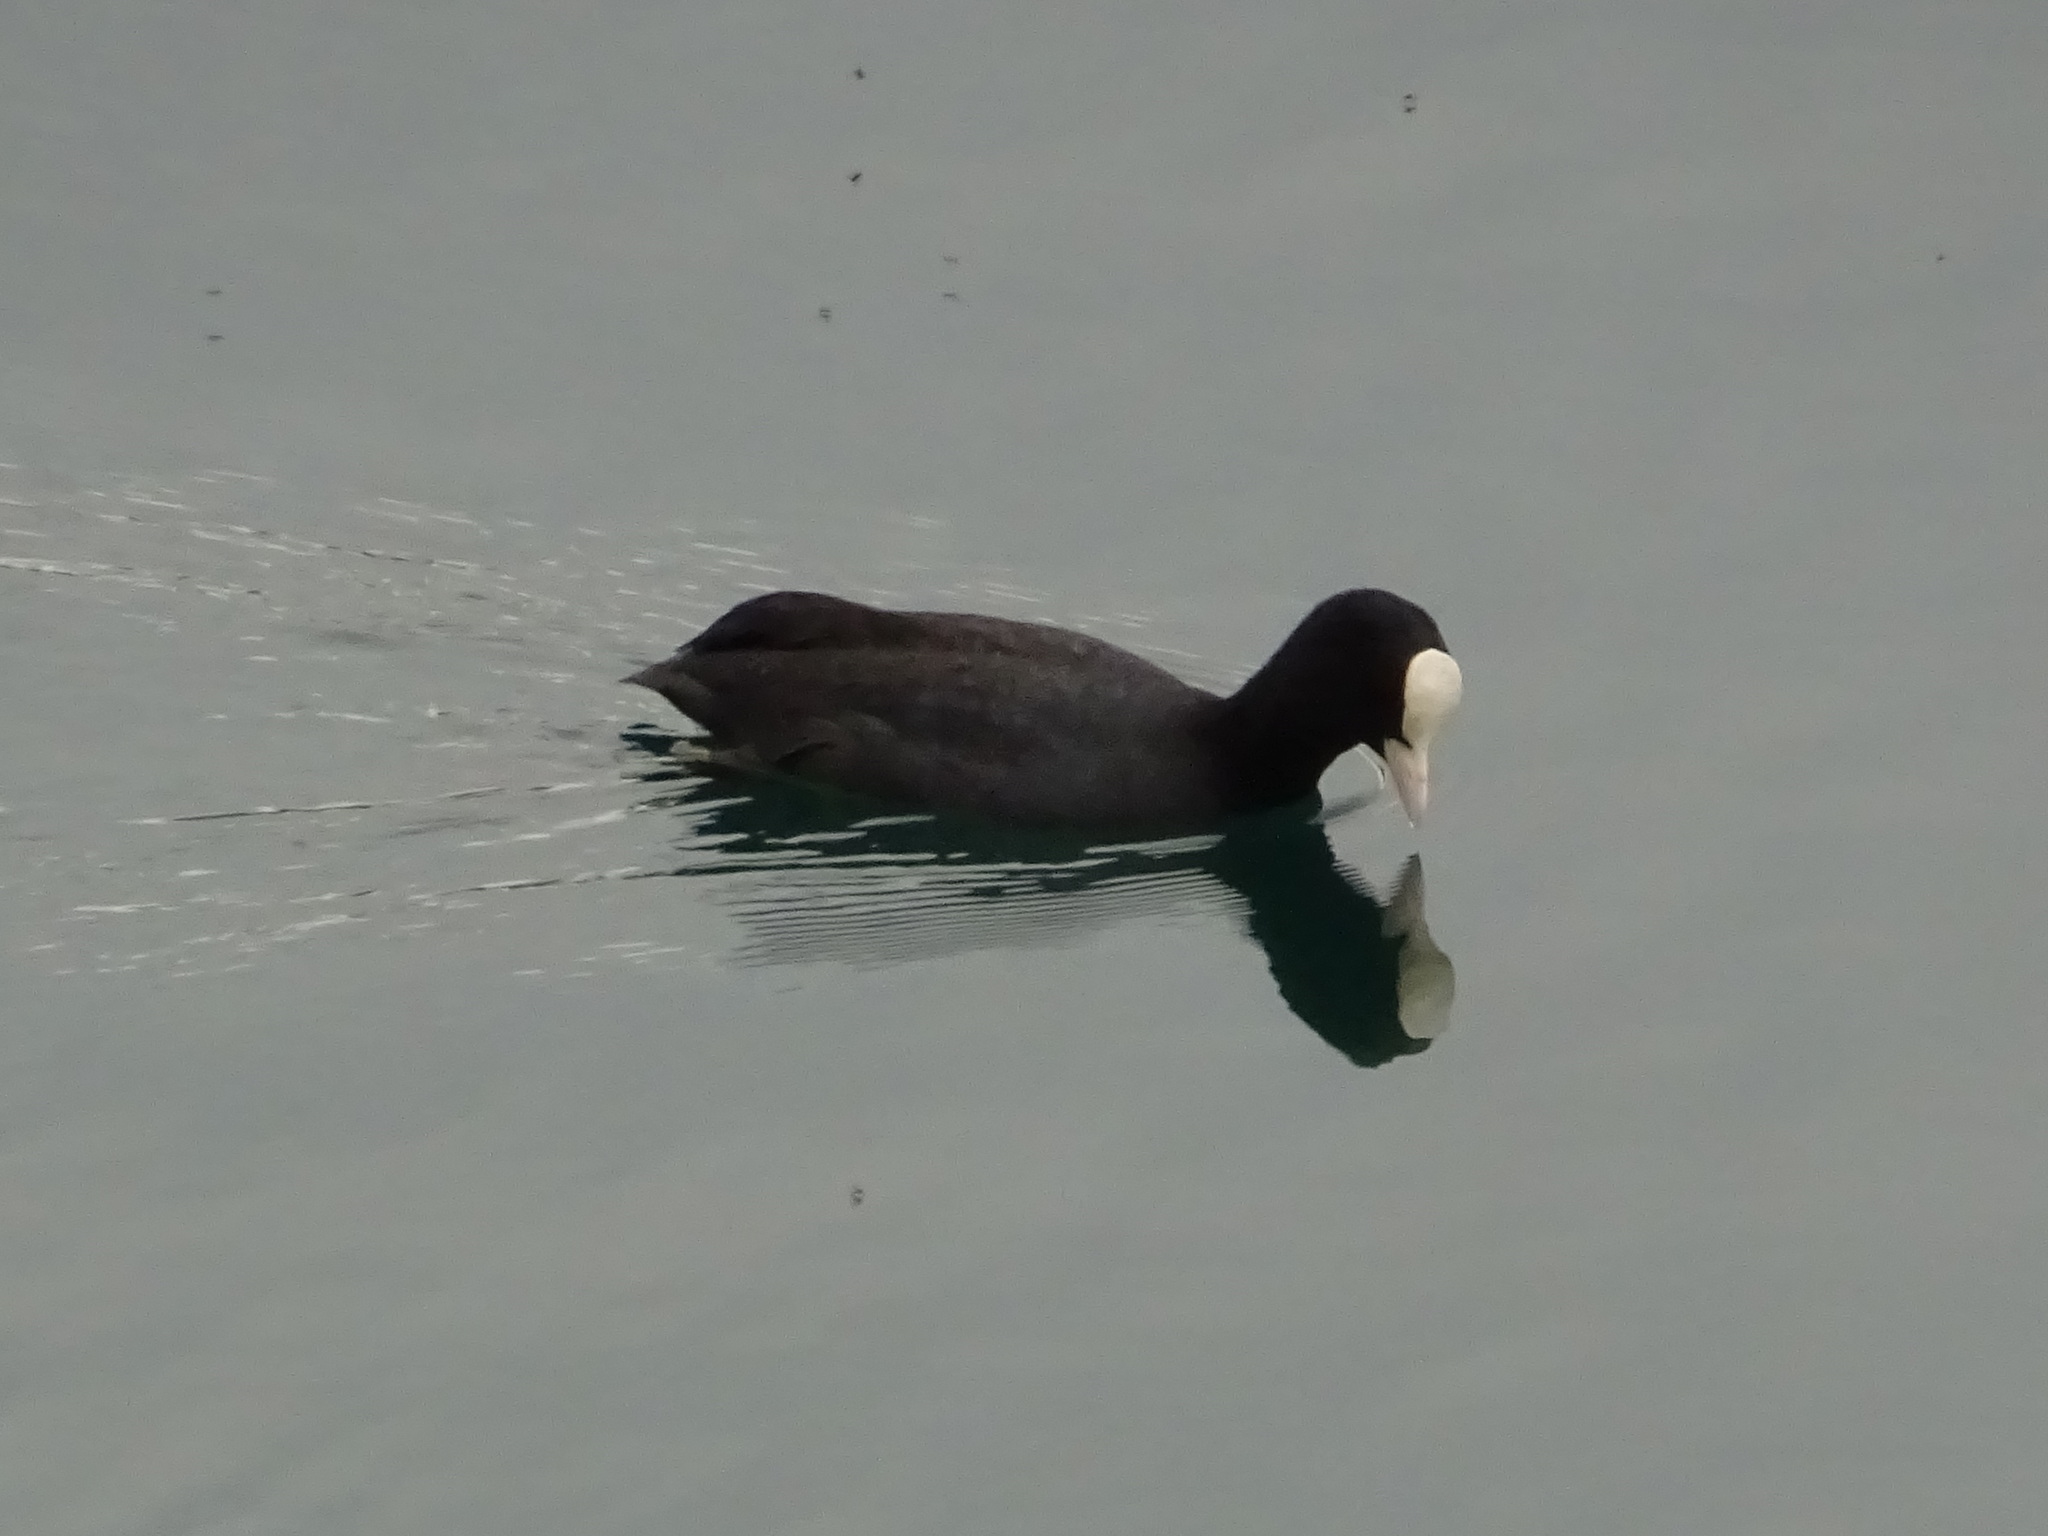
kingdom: Animalia
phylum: Chordata
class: Aves
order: Gruiformes
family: Rallidae
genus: Fulica
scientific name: Fulica atra
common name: Eurasian coot
